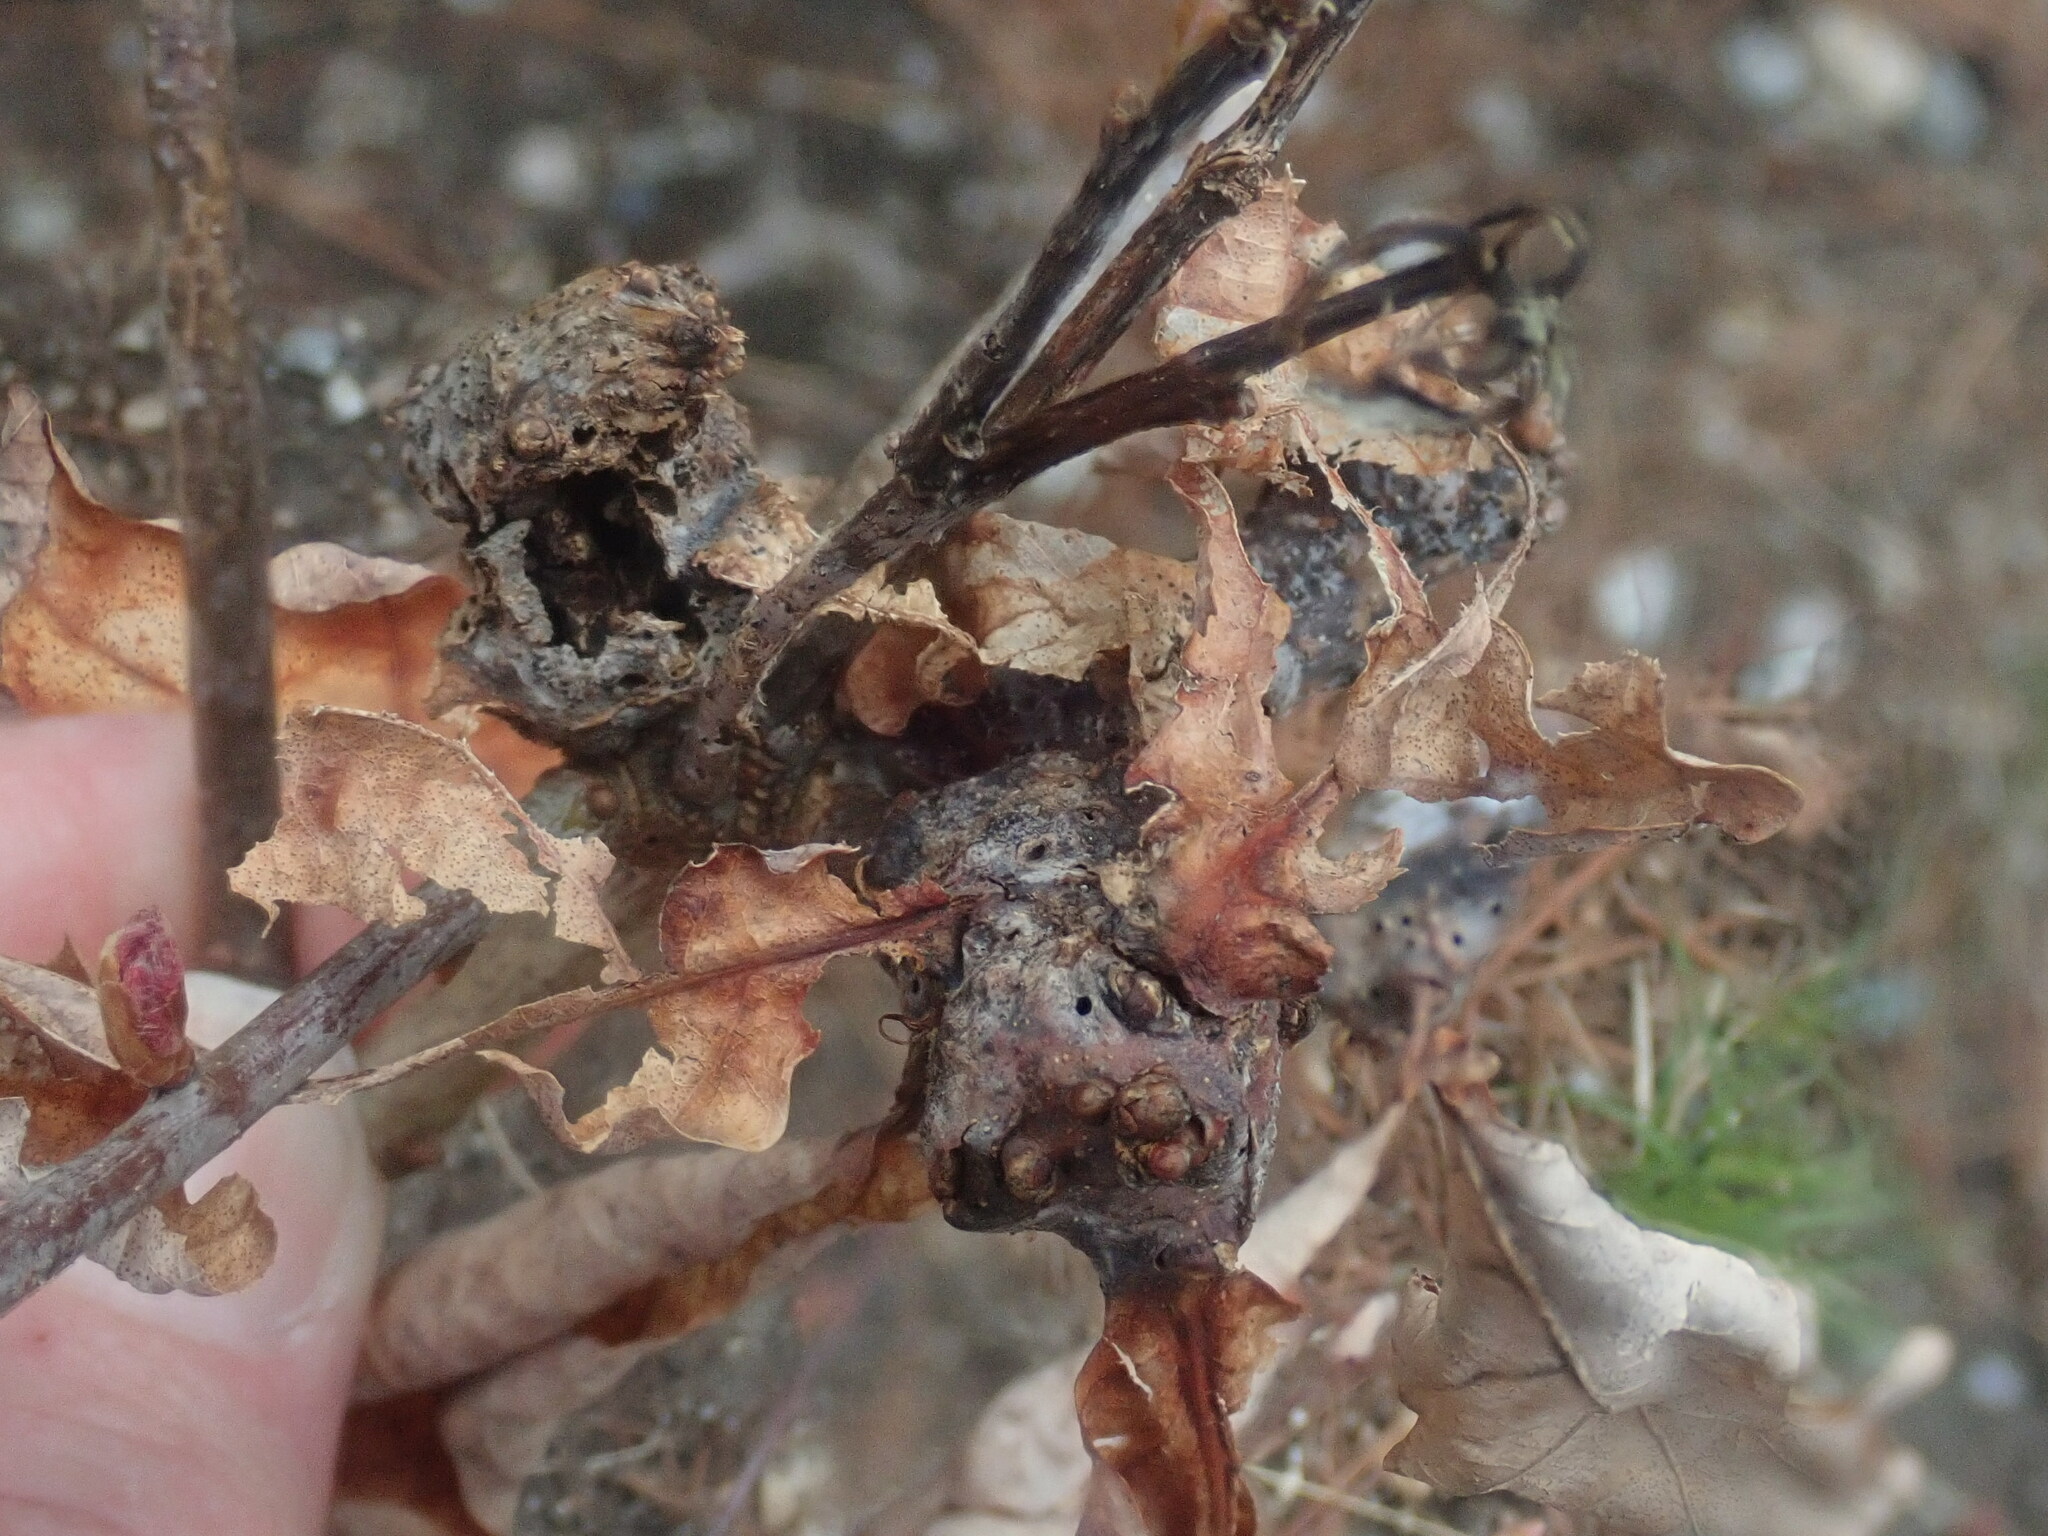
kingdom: Animalia
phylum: Arthropoda
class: Insecta
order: Hymenoptera
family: Cynipidae
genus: Neuroterus
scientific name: Neuroterus quercusbaccarum
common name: Common spangle gall
